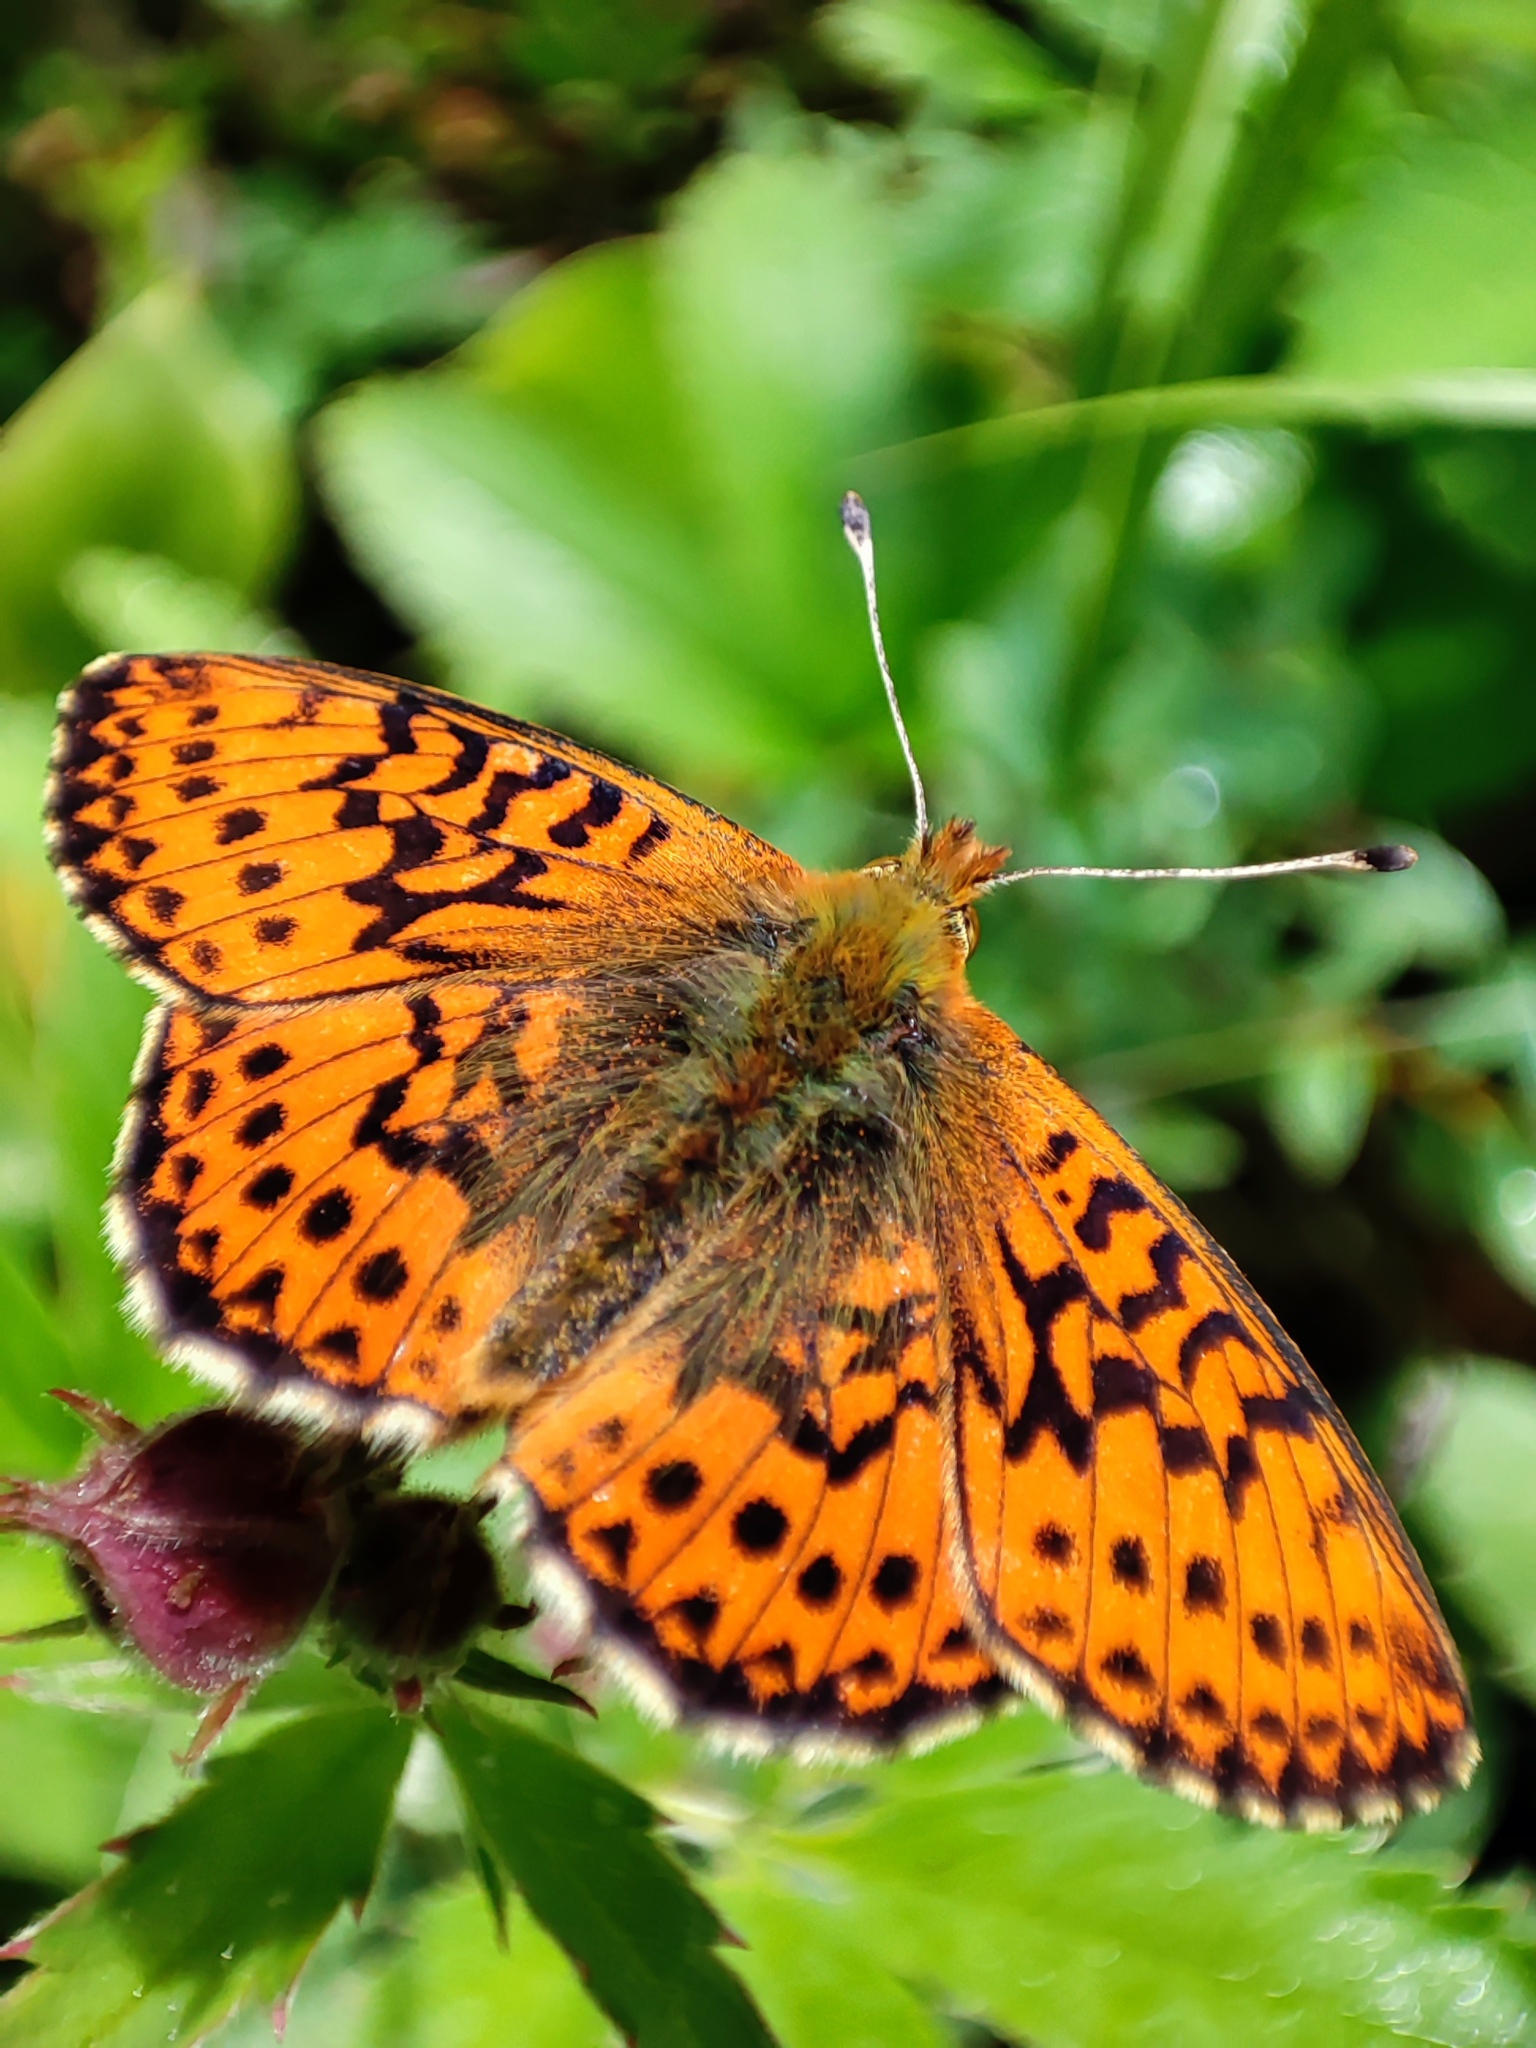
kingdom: Animalia
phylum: Arthropoda
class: Insecta
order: Lepidoptera
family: Nymphalidae
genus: Boloria
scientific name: Boloria aquilonaris
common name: Cranberry fritillary
